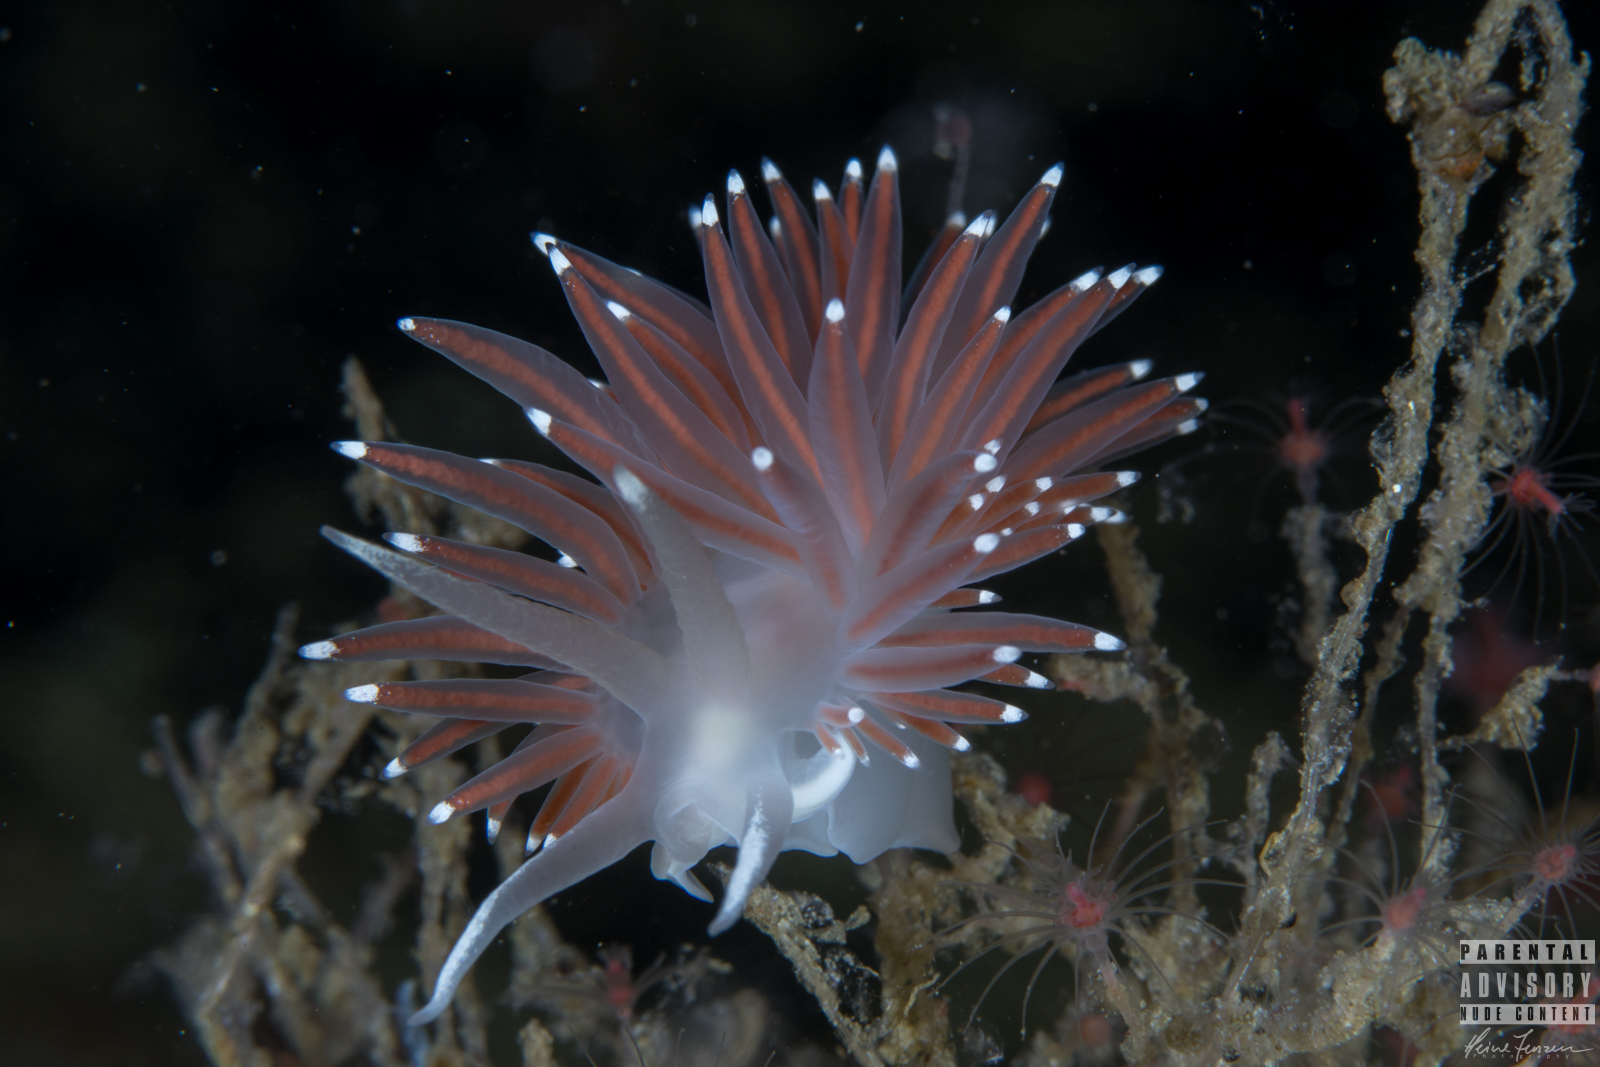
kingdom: Animalia
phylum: Mollusca
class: Gastropoda
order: Nudibranchia
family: Coryphellidae
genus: Coryphella
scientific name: Coryphella browni
